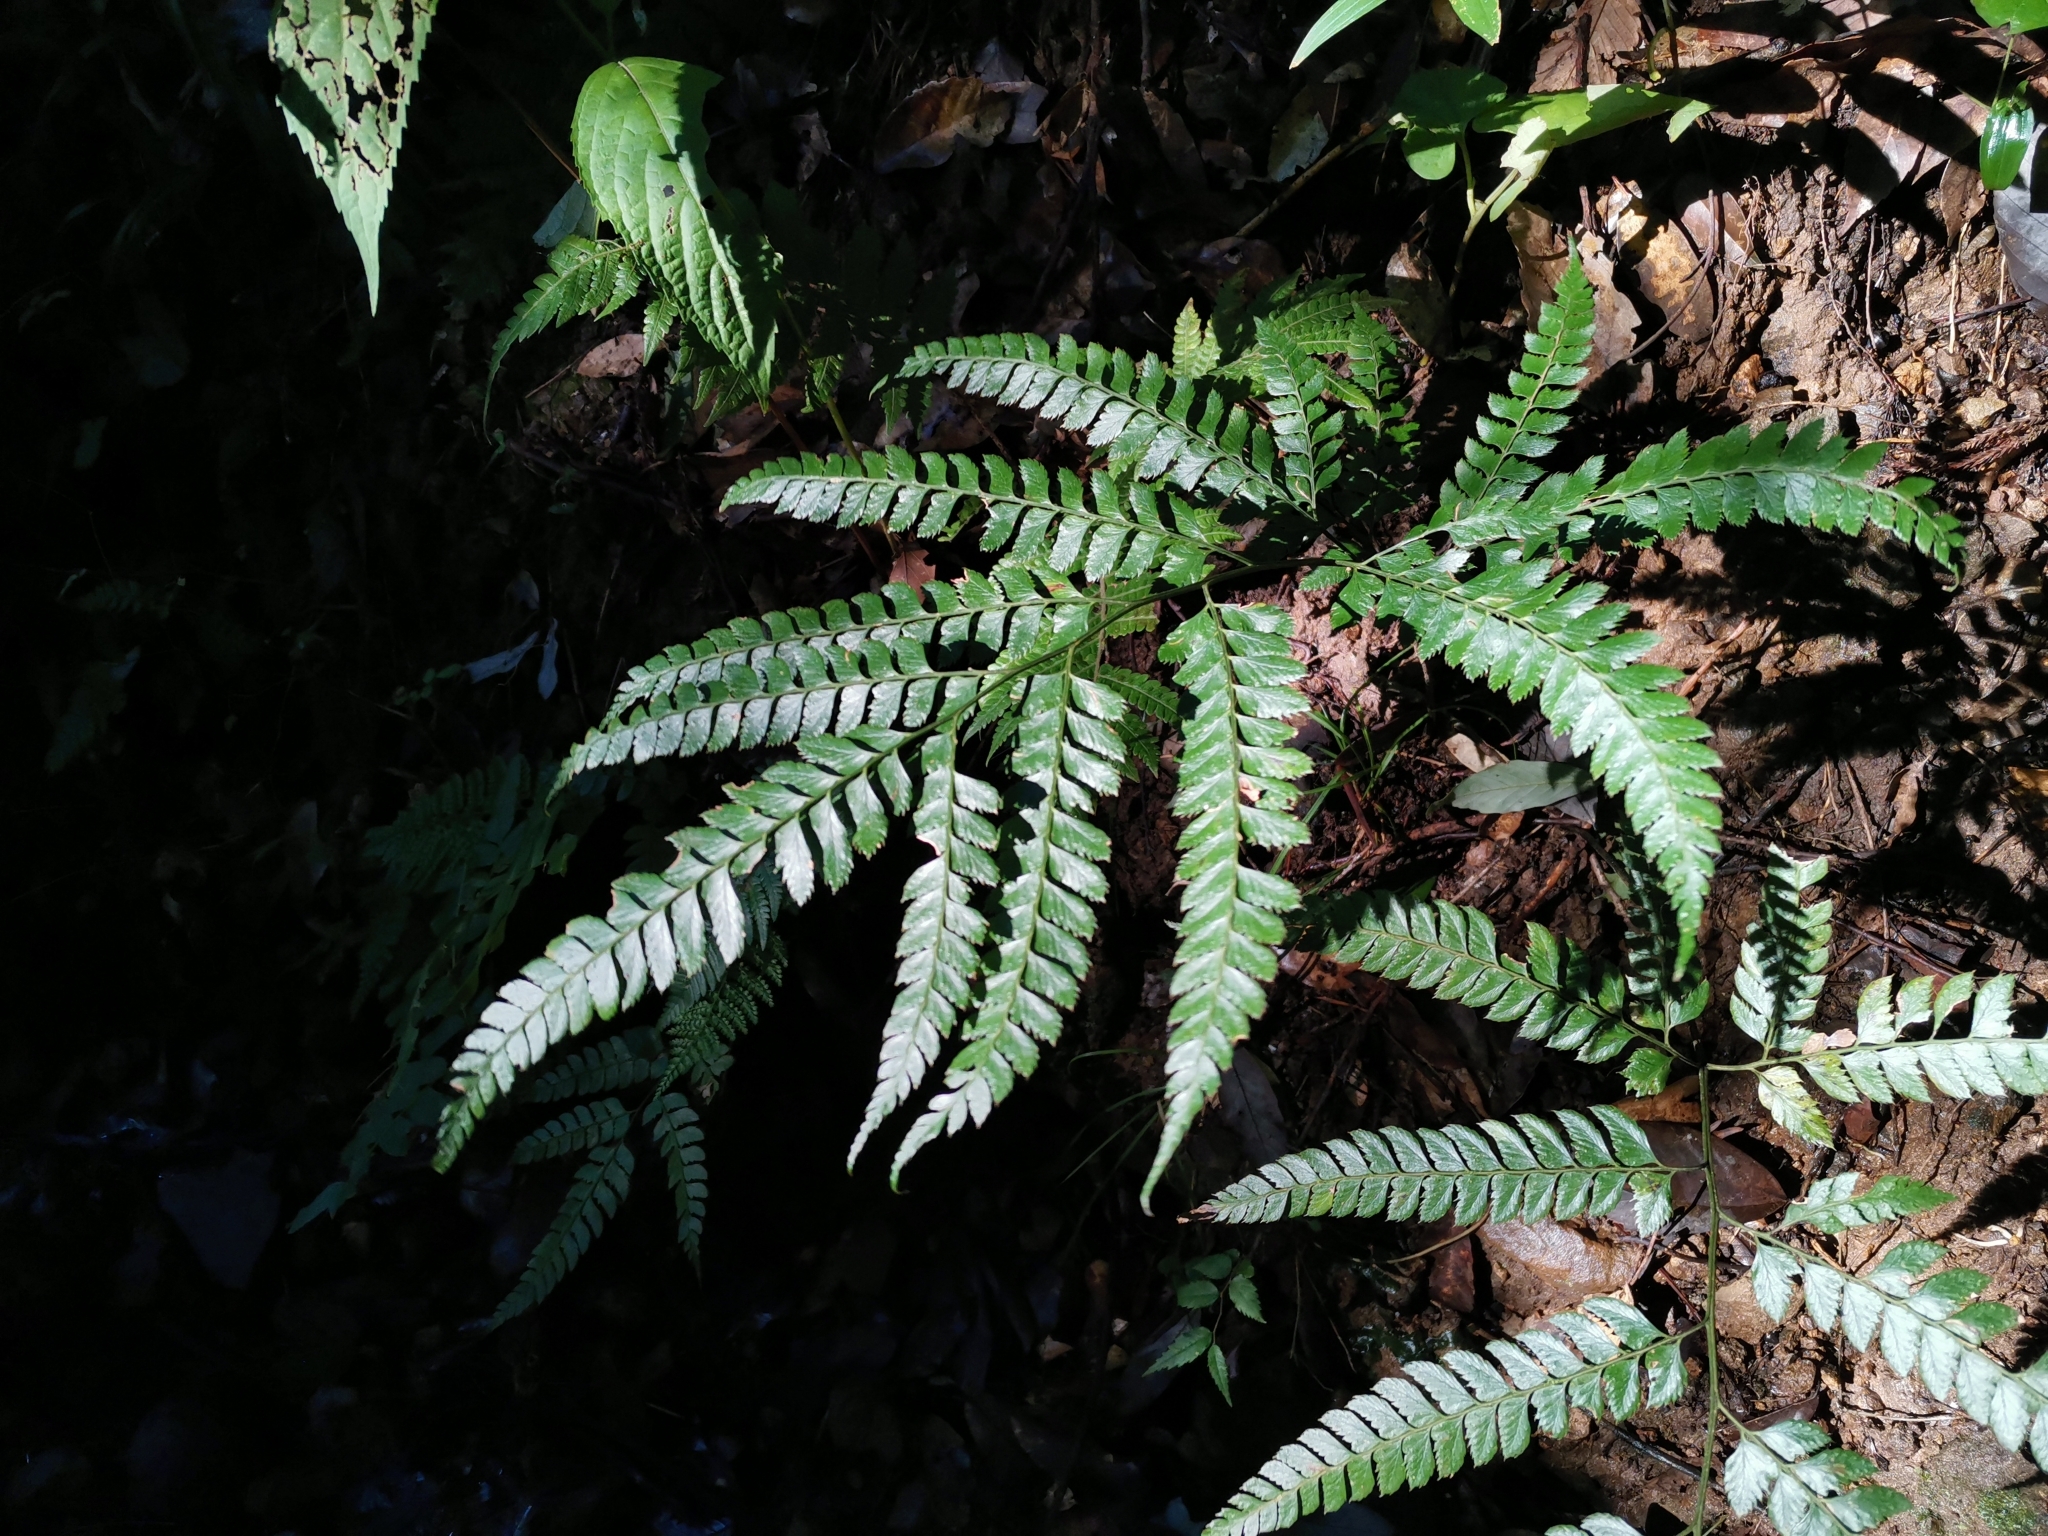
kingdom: Plantae
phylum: Tracheophyta
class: Polypodiopsida
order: Polypodiales
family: Dryopteridaceae
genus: Arachniodes
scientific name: Arachniodes rhomboidea
